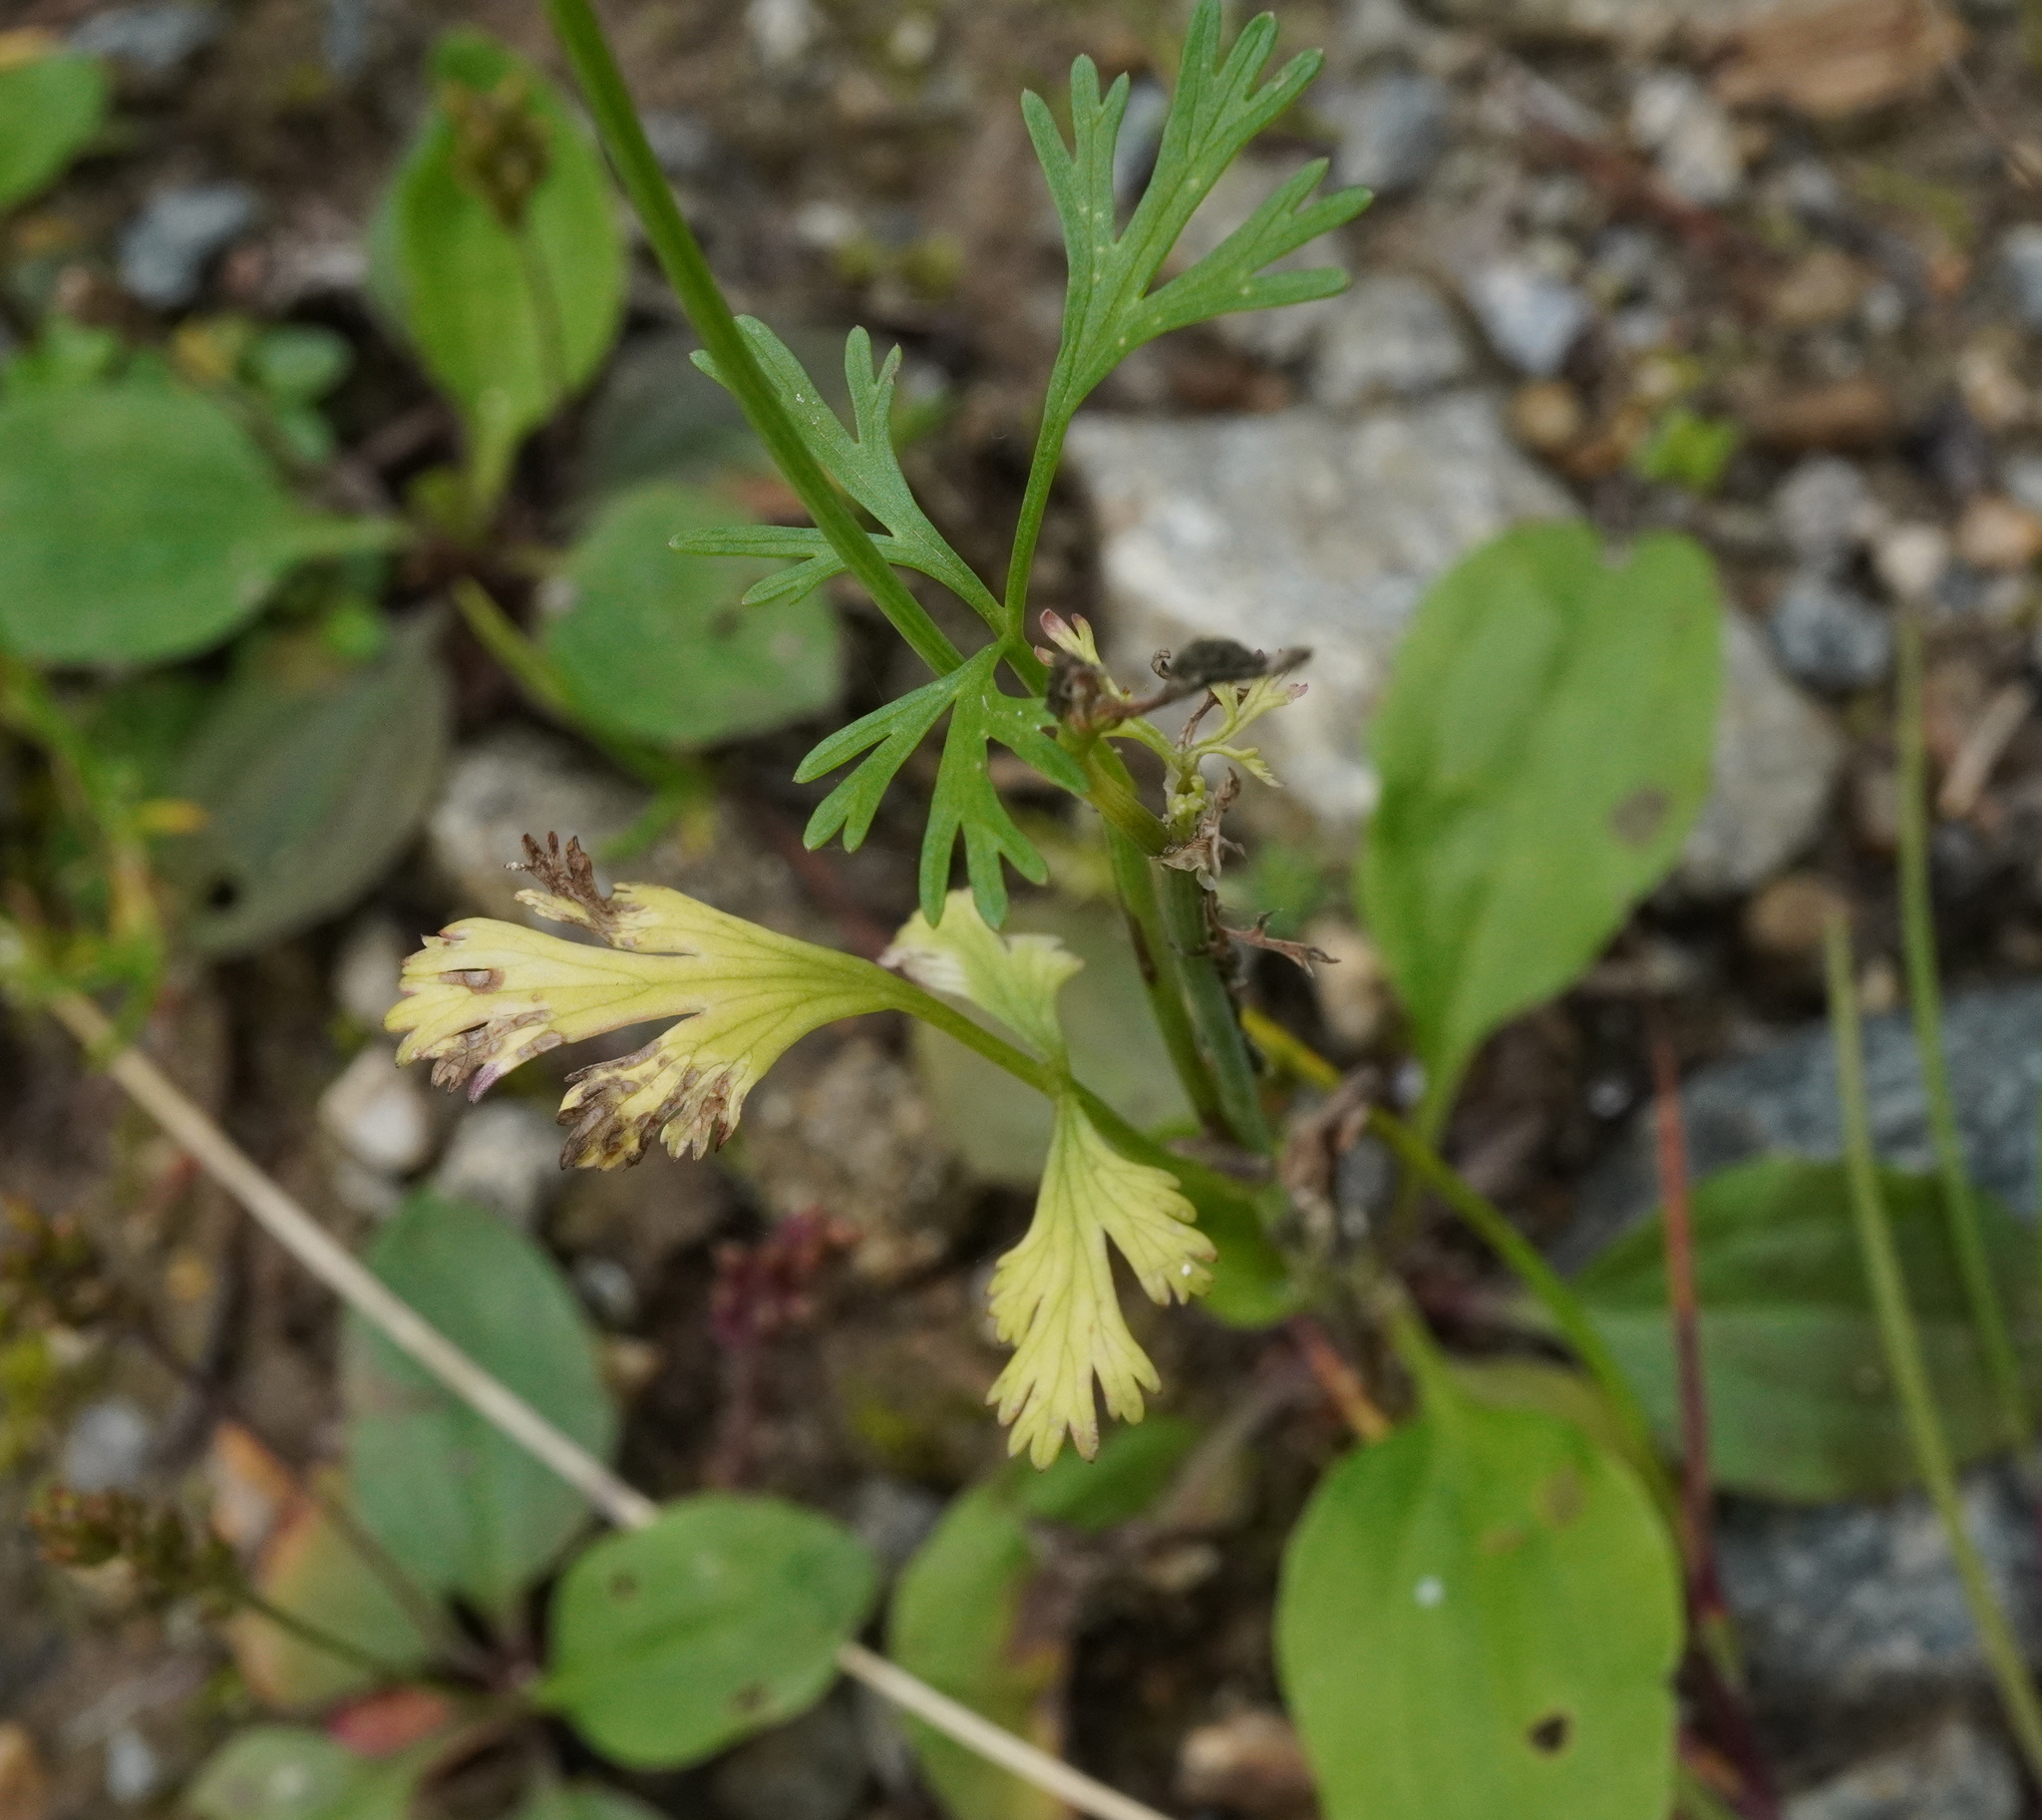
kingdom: Plantae
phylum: Tracheophyta
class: Magnoliopsida
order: Apiales
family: Apiaceae
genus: Coriandrum
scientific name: Coriandrum sativum
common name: Coriander
